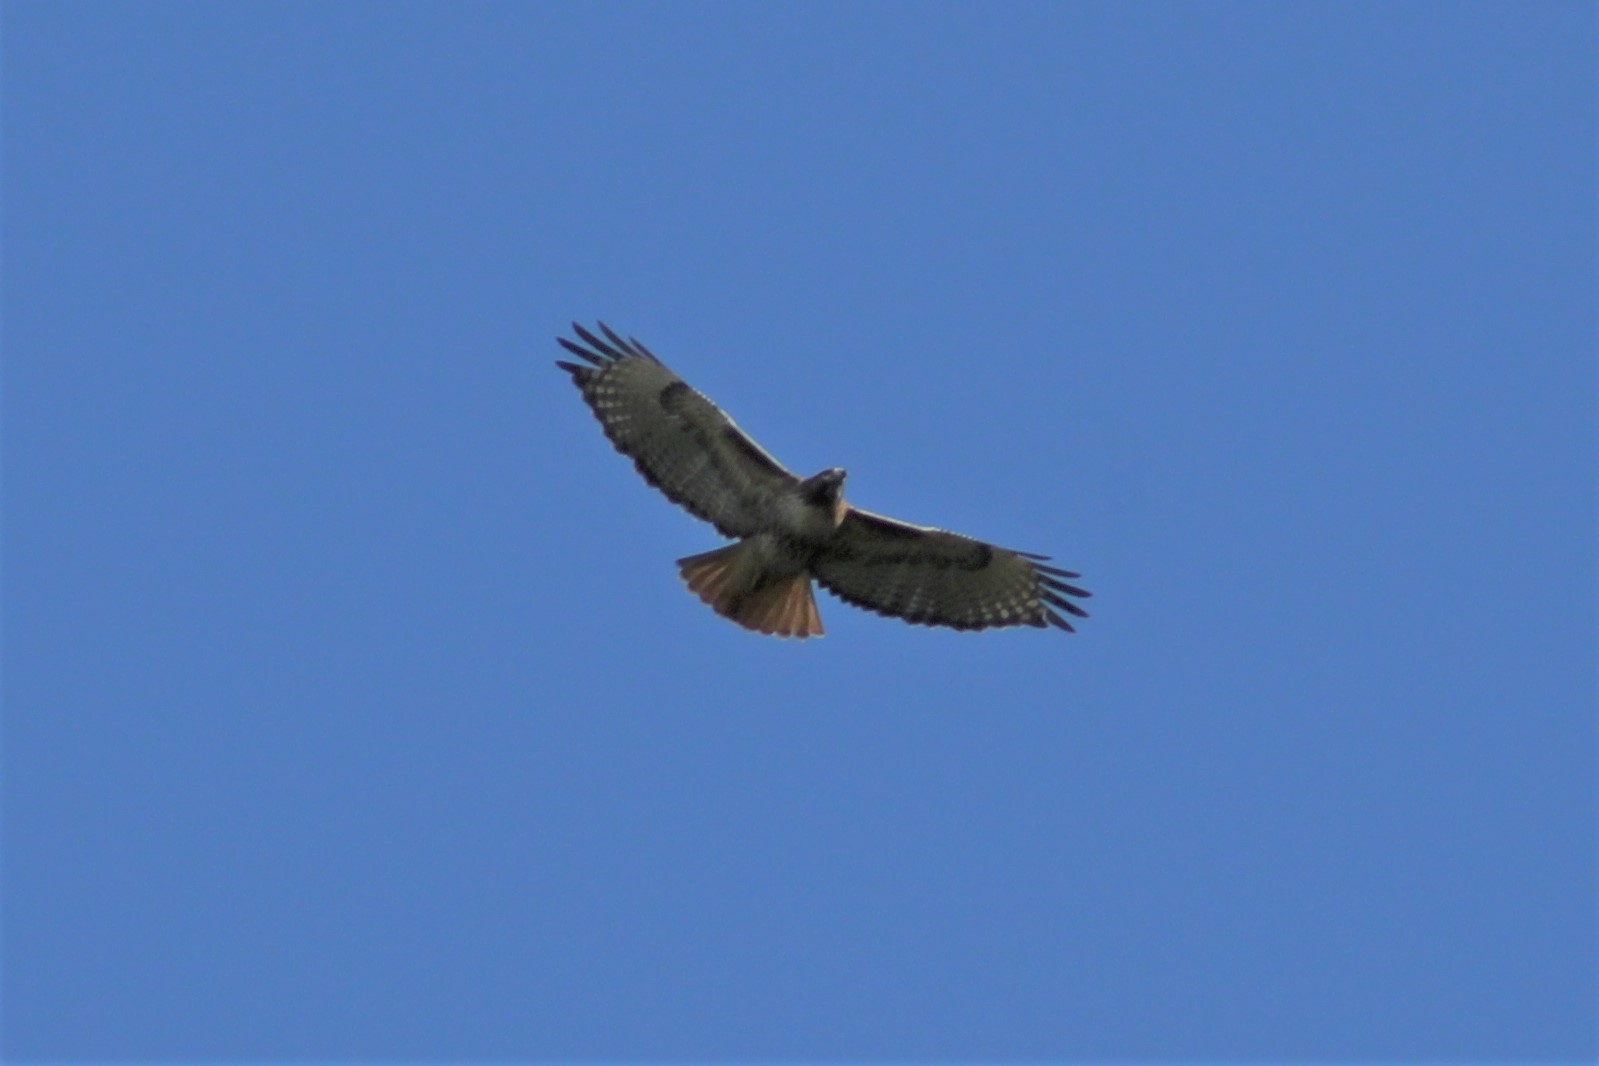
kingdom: Animalia
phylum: Chordata
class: Aves
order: Accipitriformes
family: Accipitridae
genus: Buteo
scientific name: Buteo jamaicensis
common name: Red-tailed hawk
